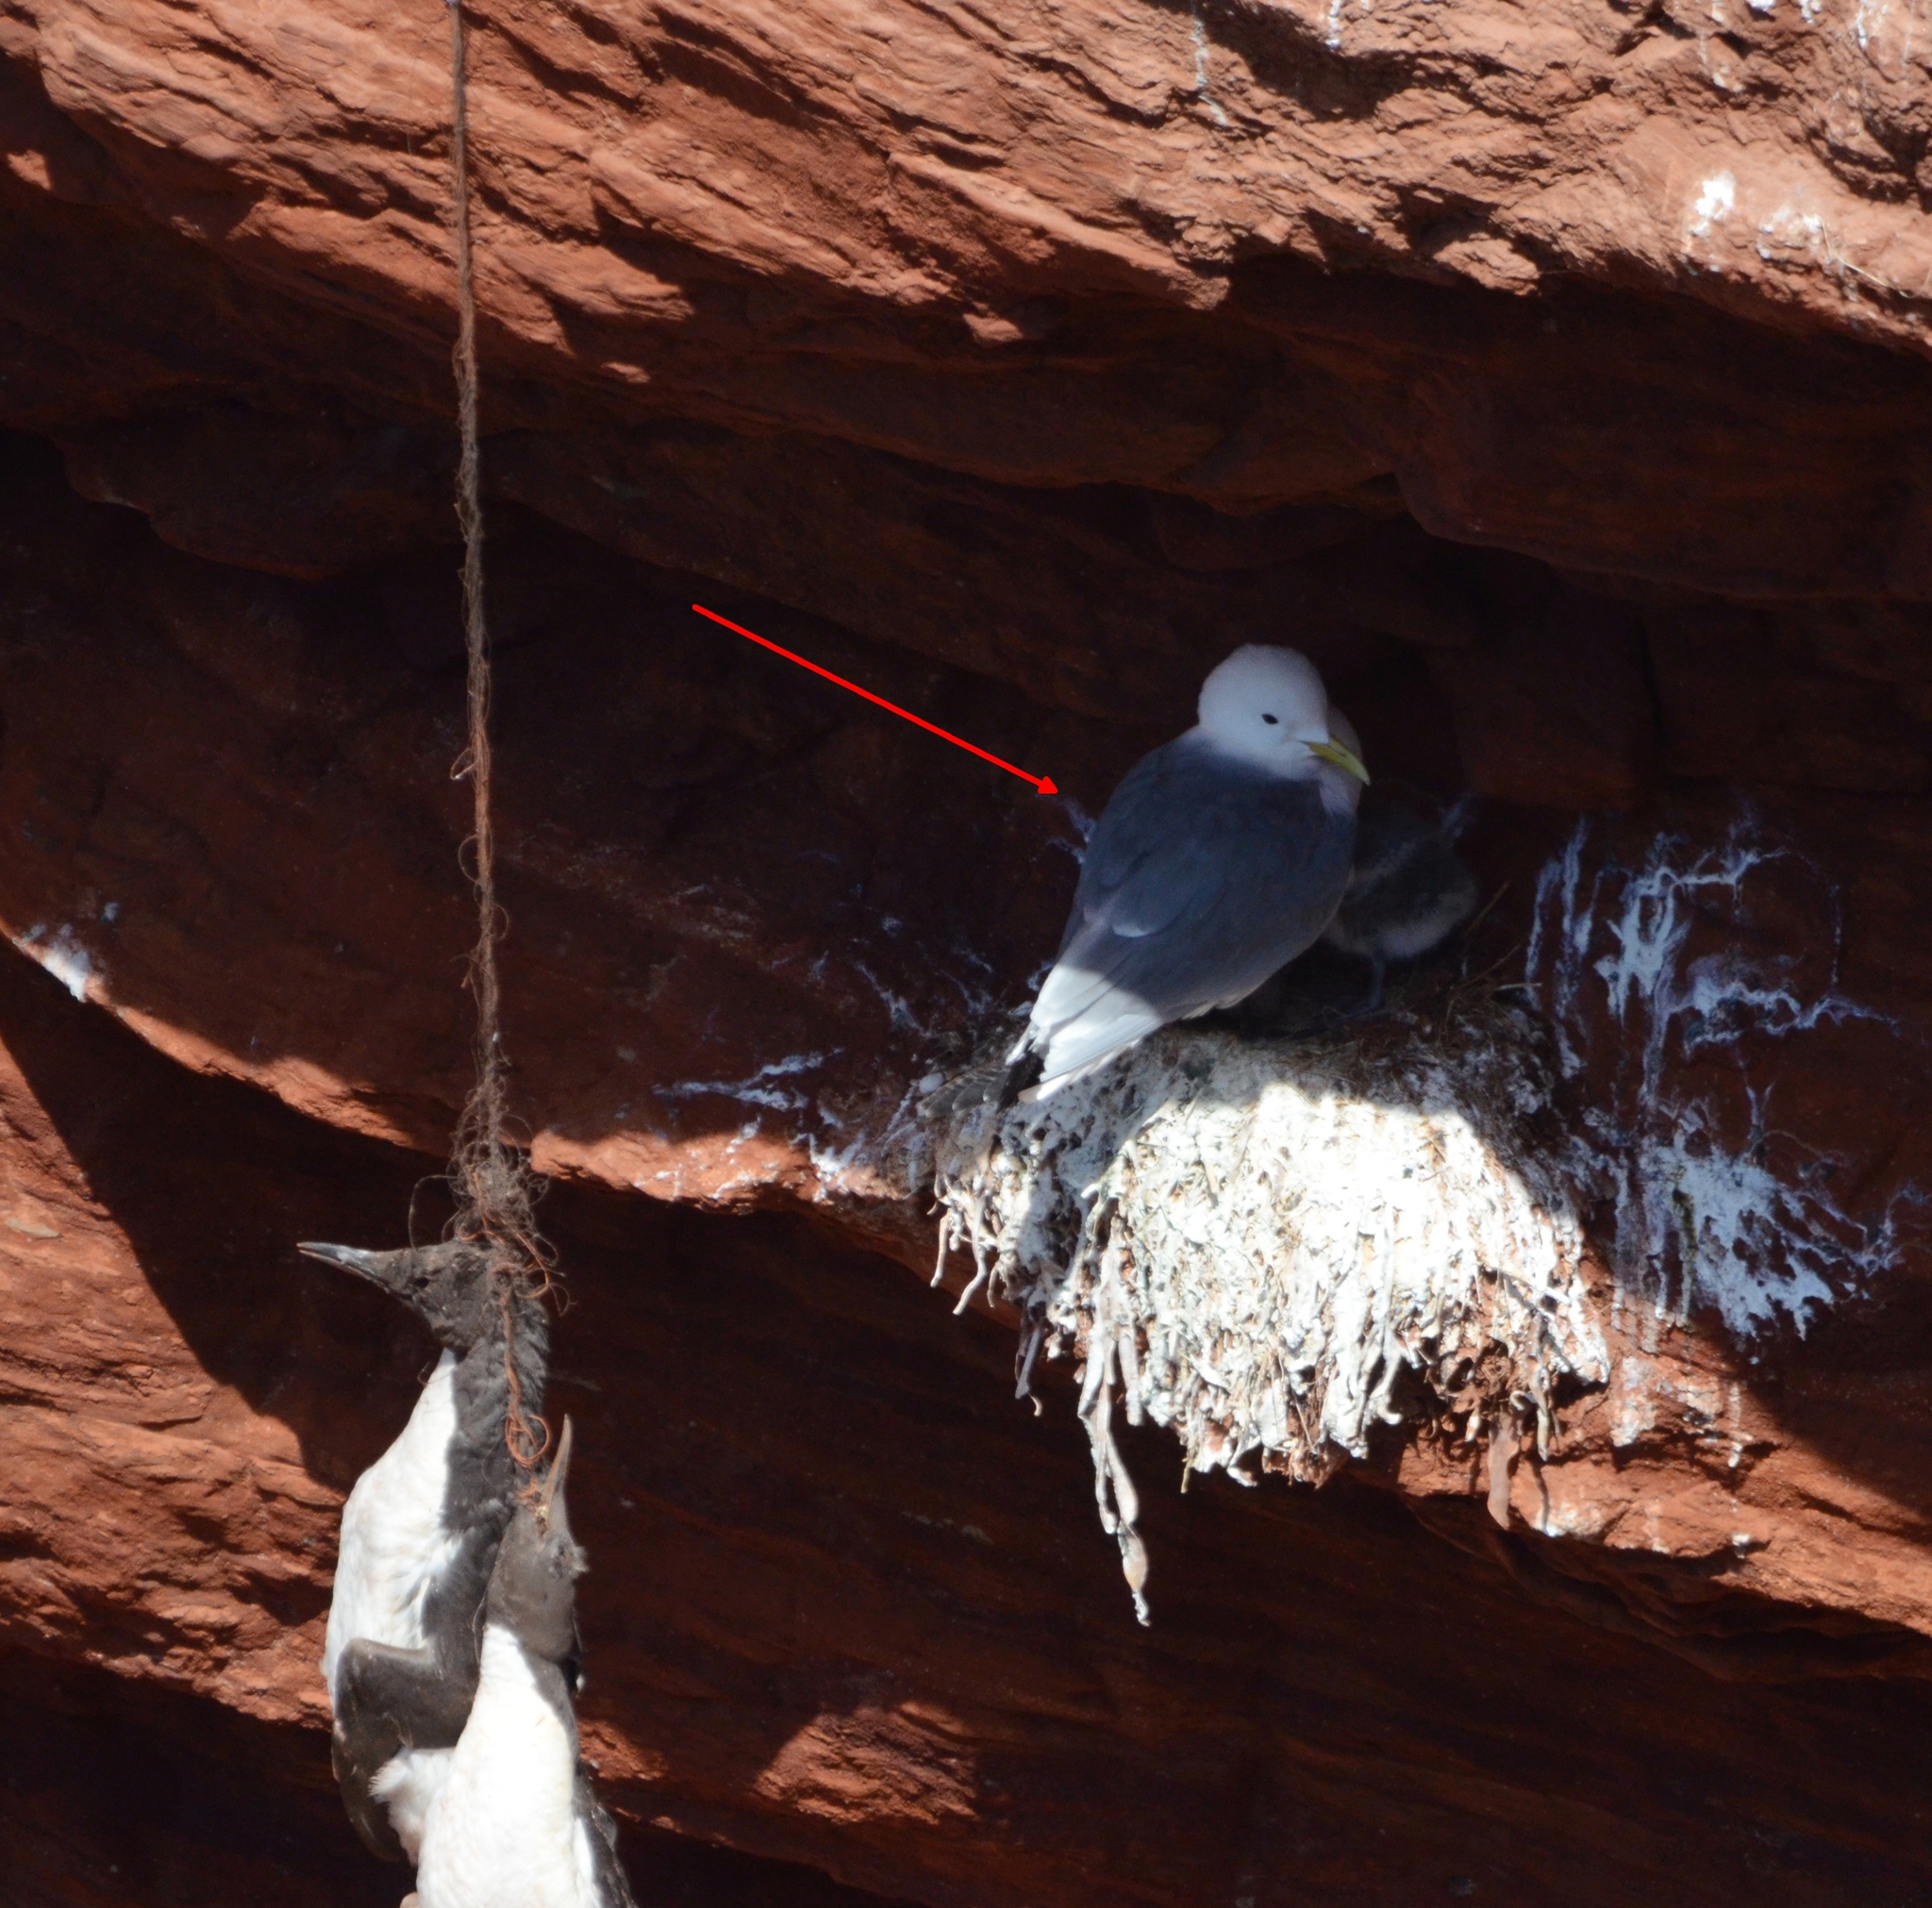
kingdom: Animalia
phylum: Chordata
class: Aves
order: Charadriiformes
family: Laridae
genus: Rissa
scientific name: Rissa tridactyla
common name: Black-legged kittiwake
